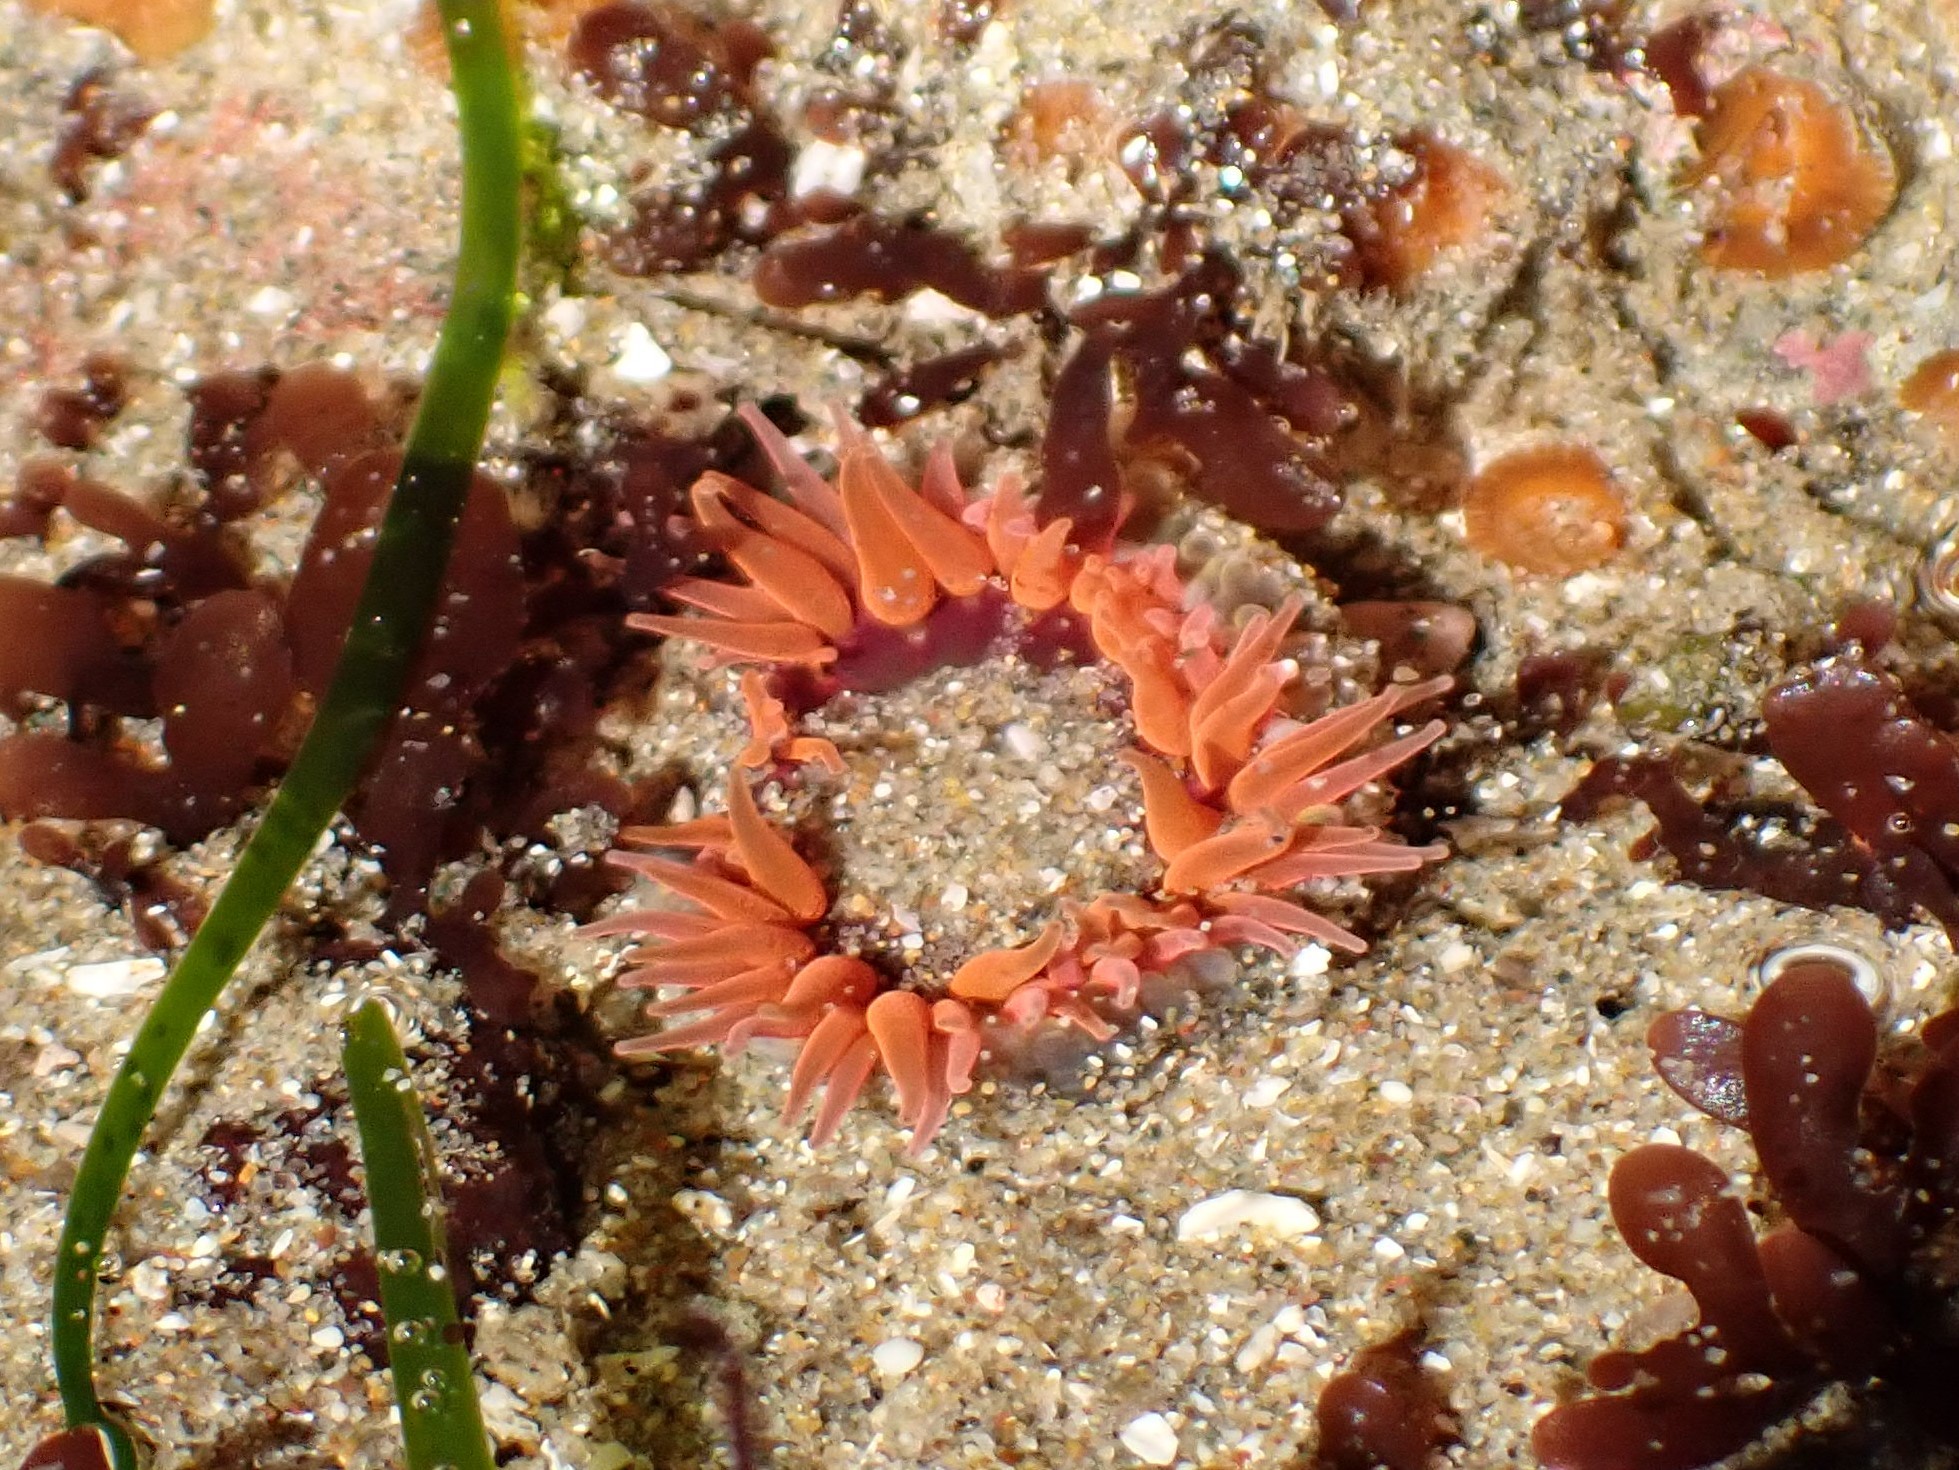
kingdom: Animalia
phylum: Cnidaria
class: Anthozoa
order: Actiniaria
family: Actiniidae
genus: Anthopleura
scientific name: Anthopleura artemisia
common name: Buried sea anemone
